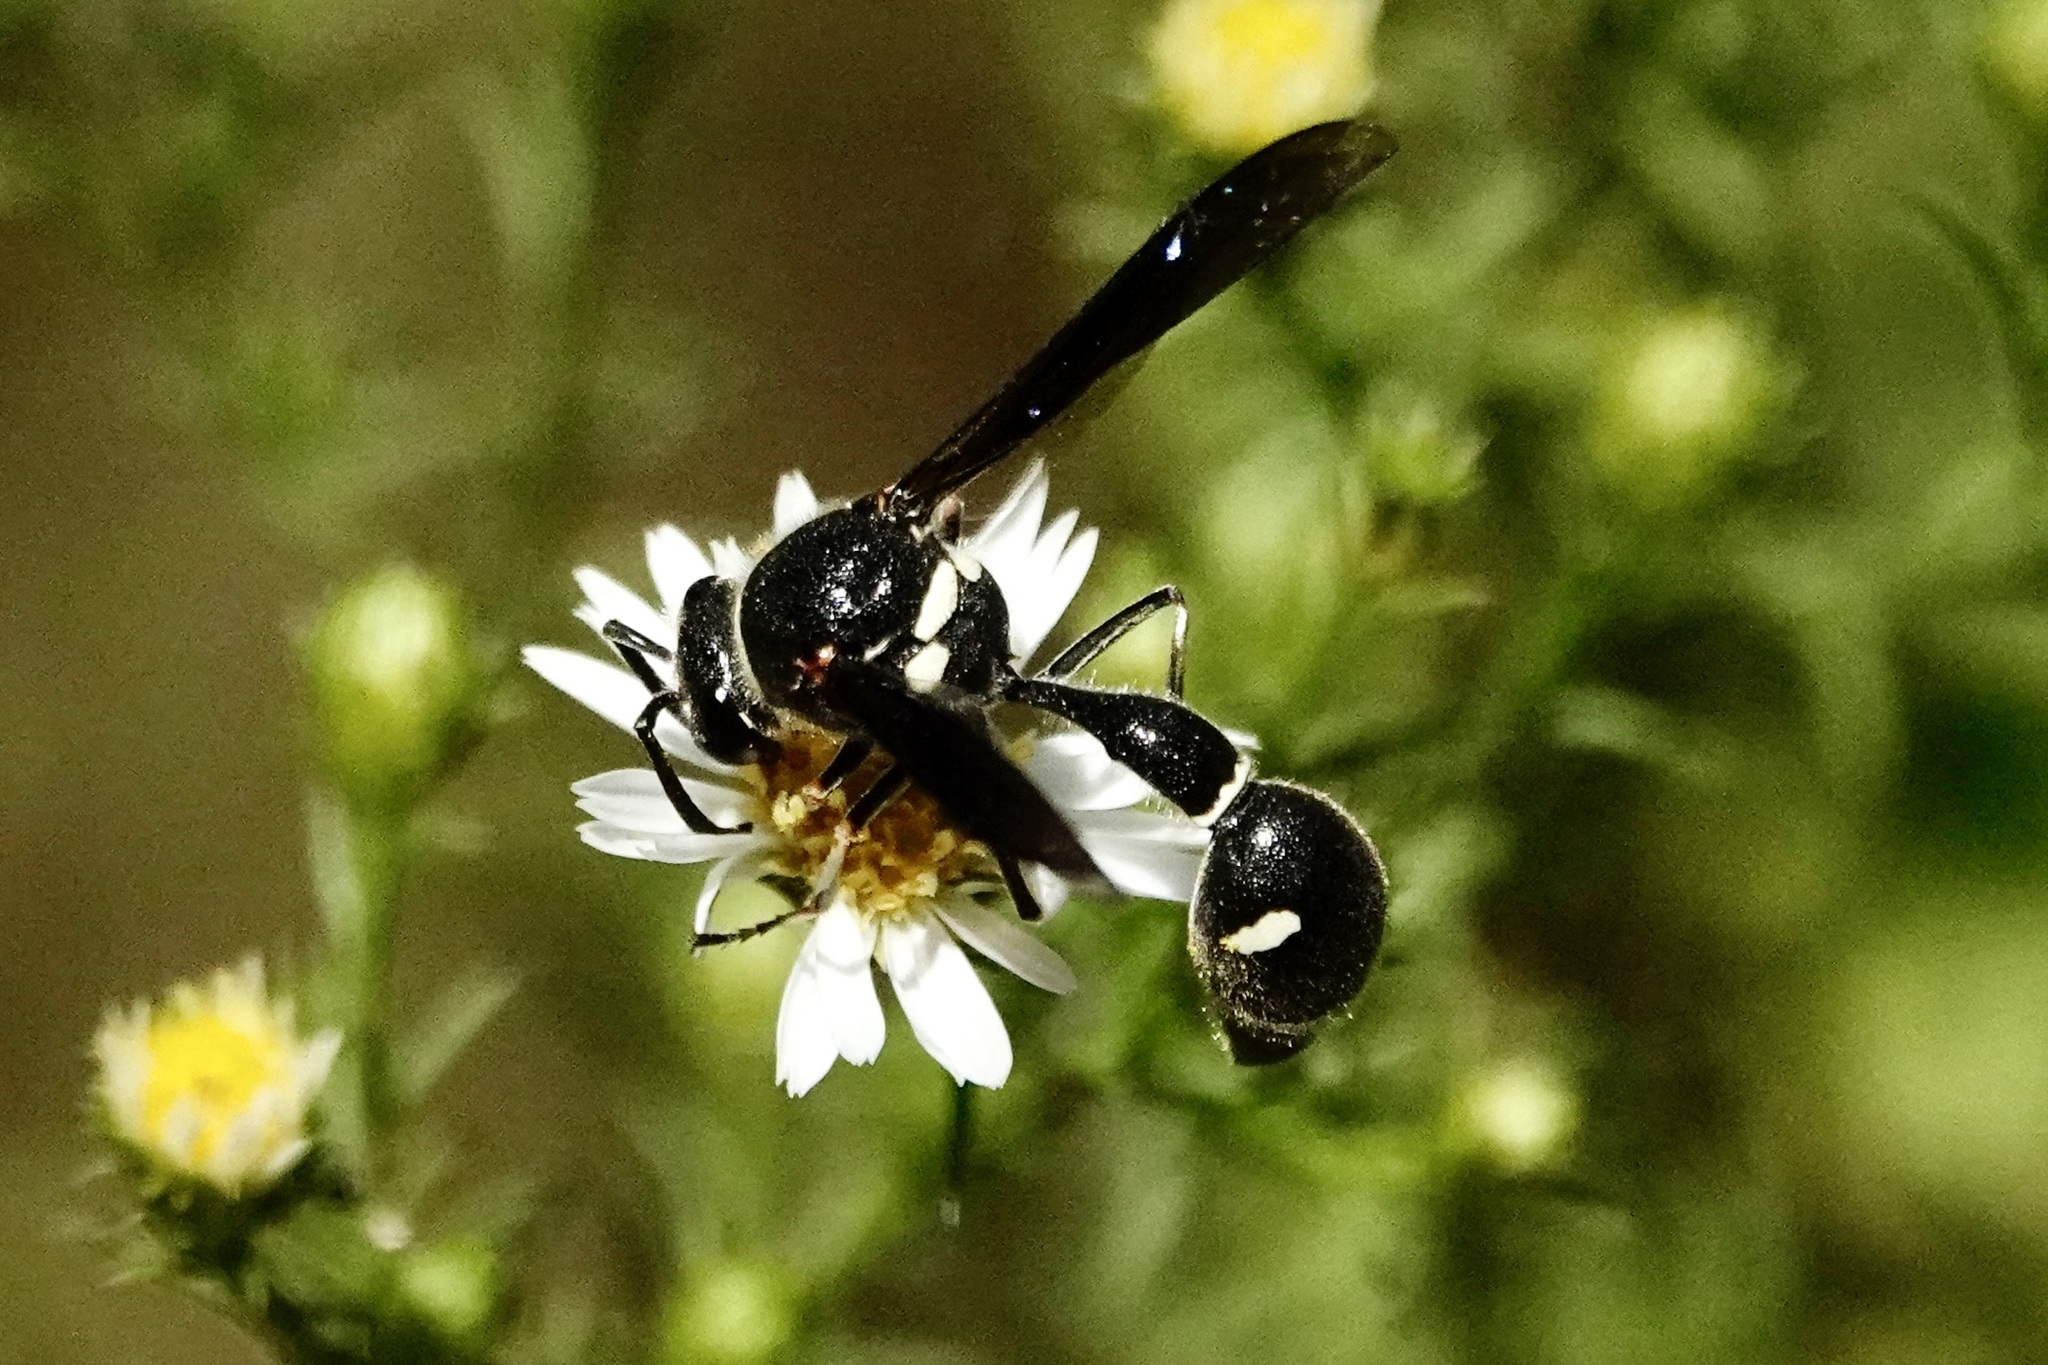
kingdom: Animalia
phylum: Arthropoda
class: Insecta
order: Hymenoptera
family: Vespidae
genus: Eumenes
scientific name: Eumenes fraternus
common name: Fraternal potter wasp
